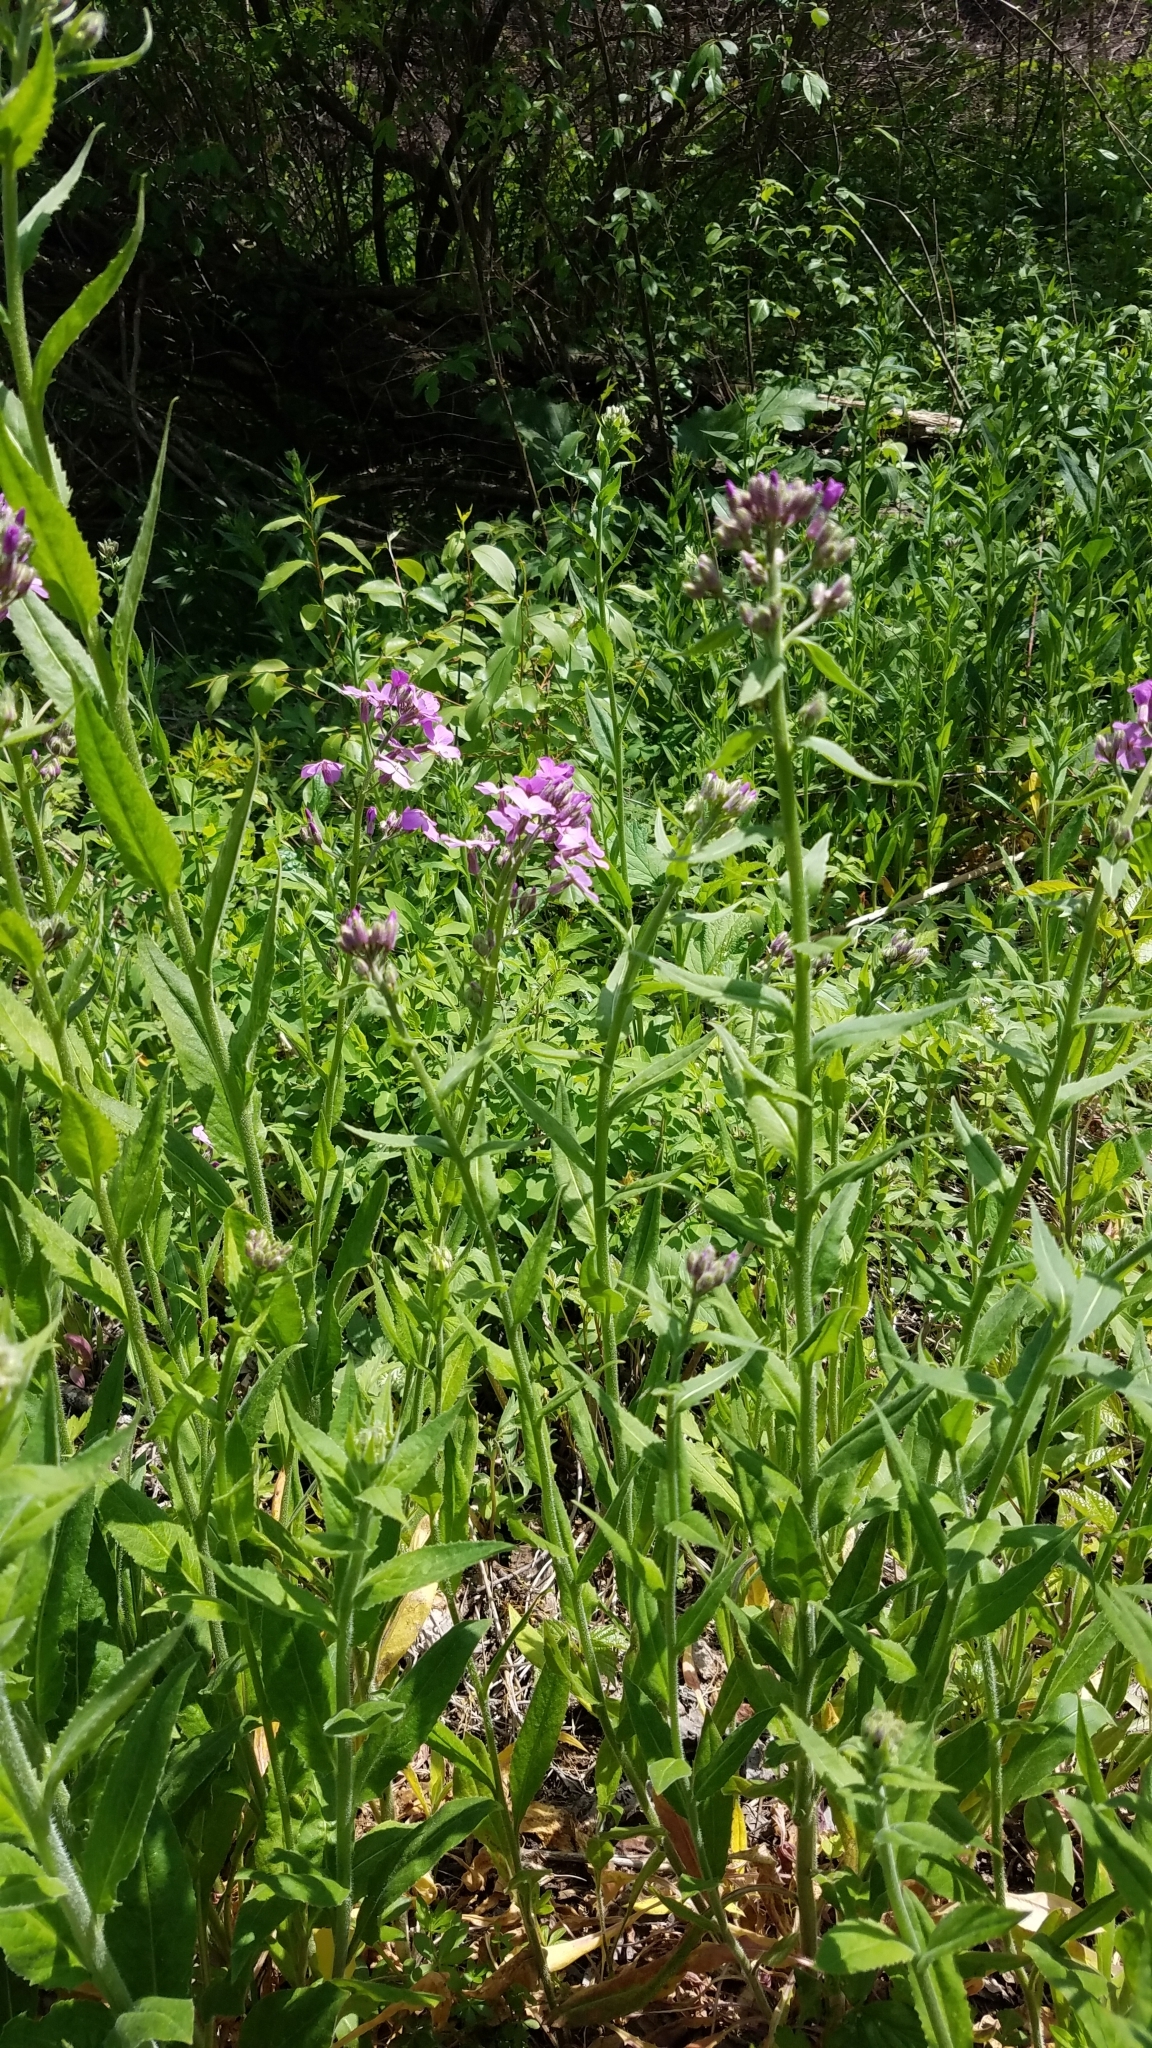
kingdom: Plantae
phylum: Tracheophyta
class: Magnoliopsida
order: Brassicales
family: Brassicaceae
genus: Hesperis
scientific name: Hesperis matronalis
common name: Dame's-violet
